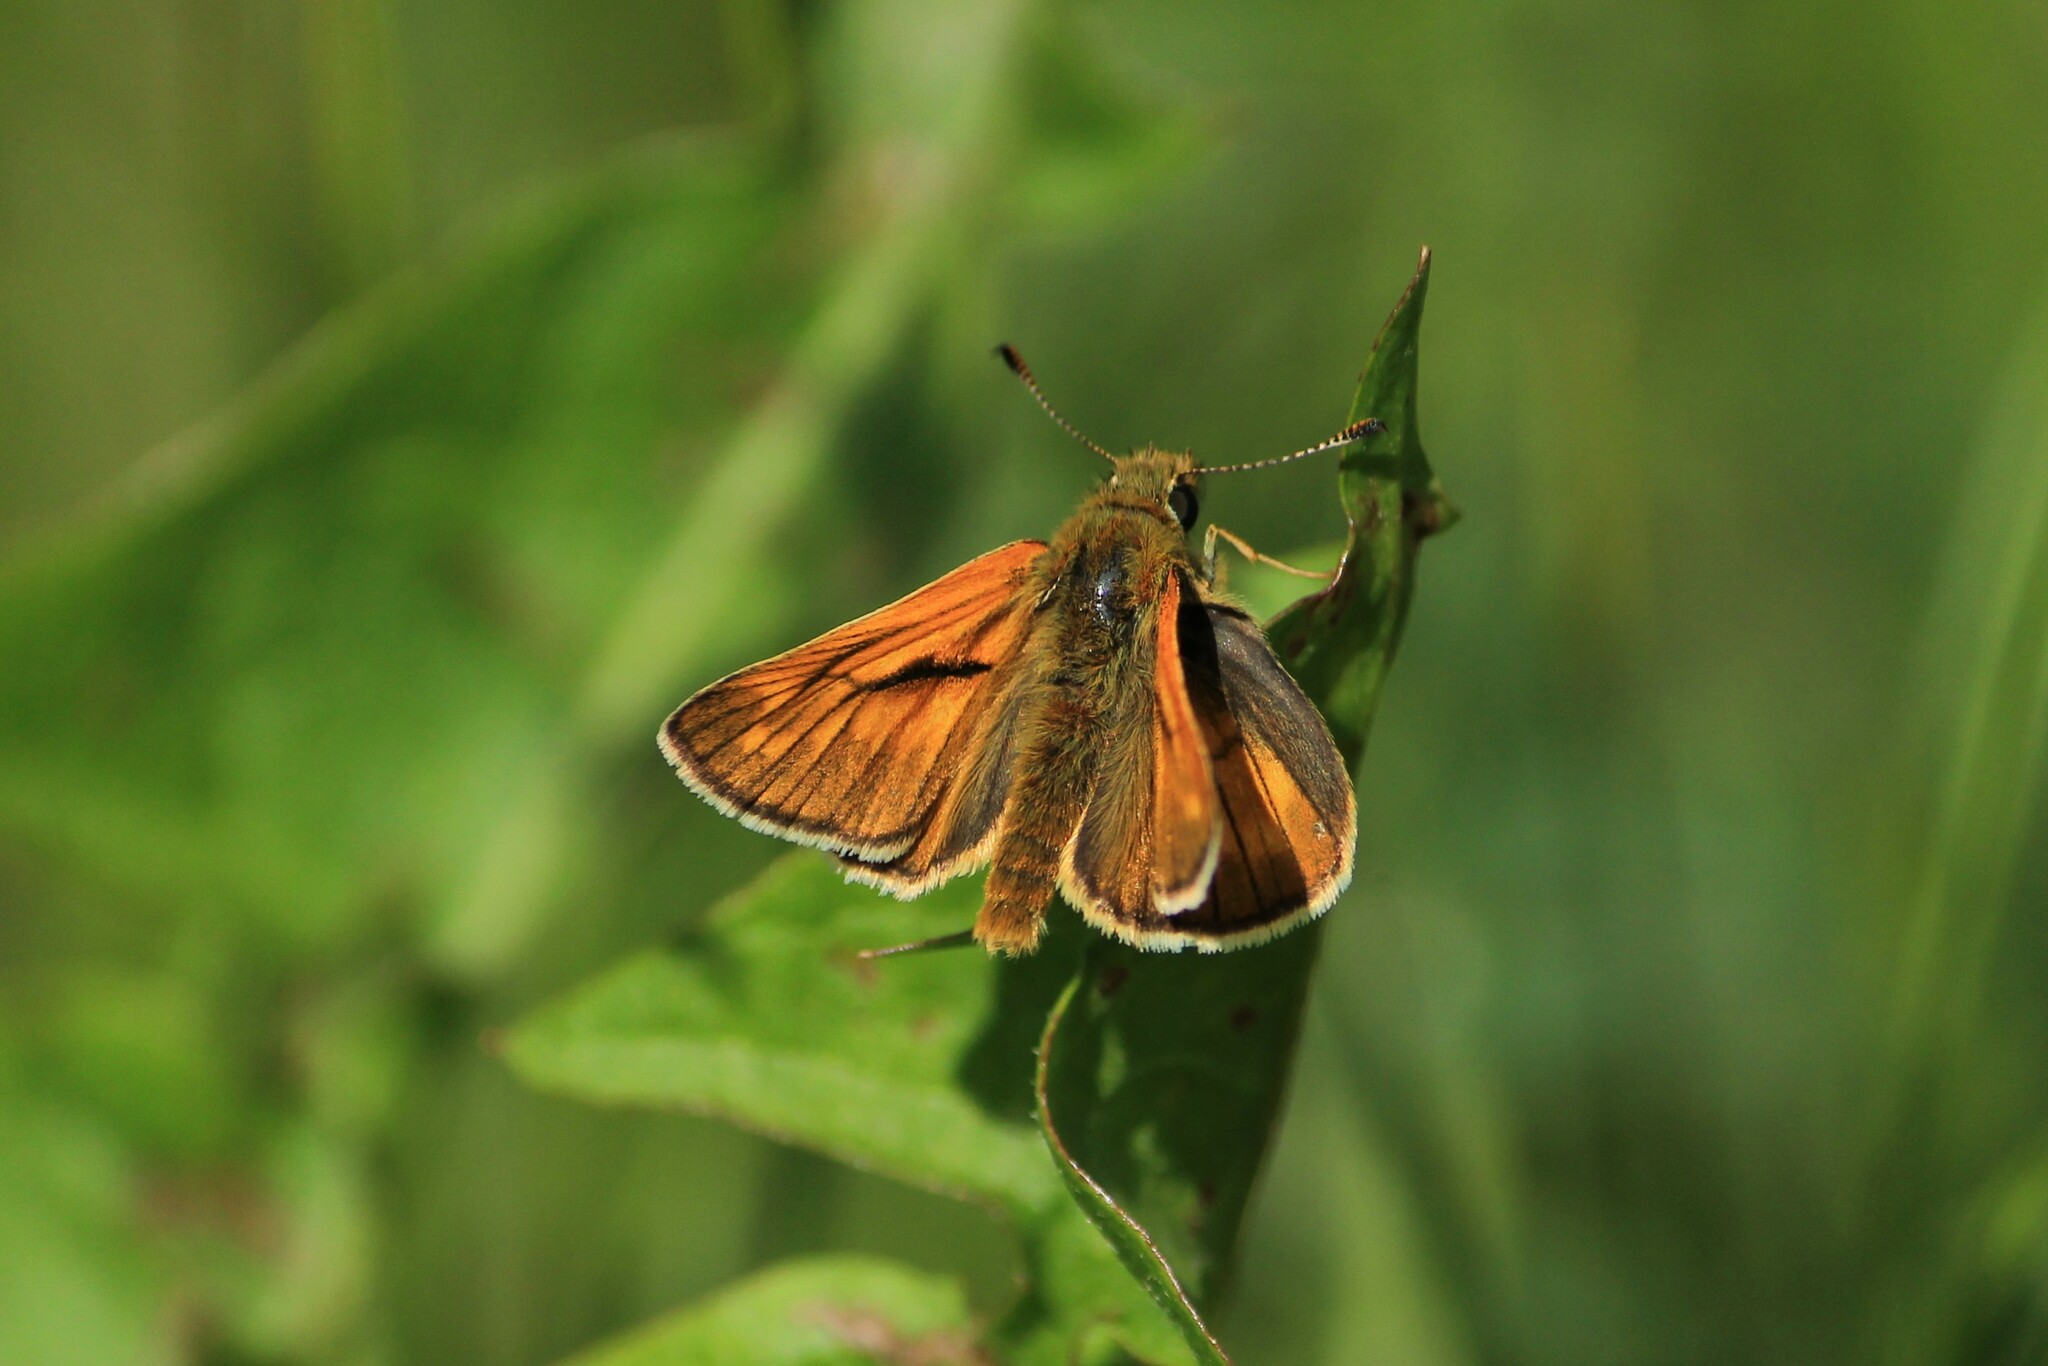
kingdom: Animalia
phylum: Arthropoda
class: Insecta
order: Lepidoptera
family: Hesperiidae
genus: Ochlodes
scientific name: Ochlodes venata
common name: Large skipper
